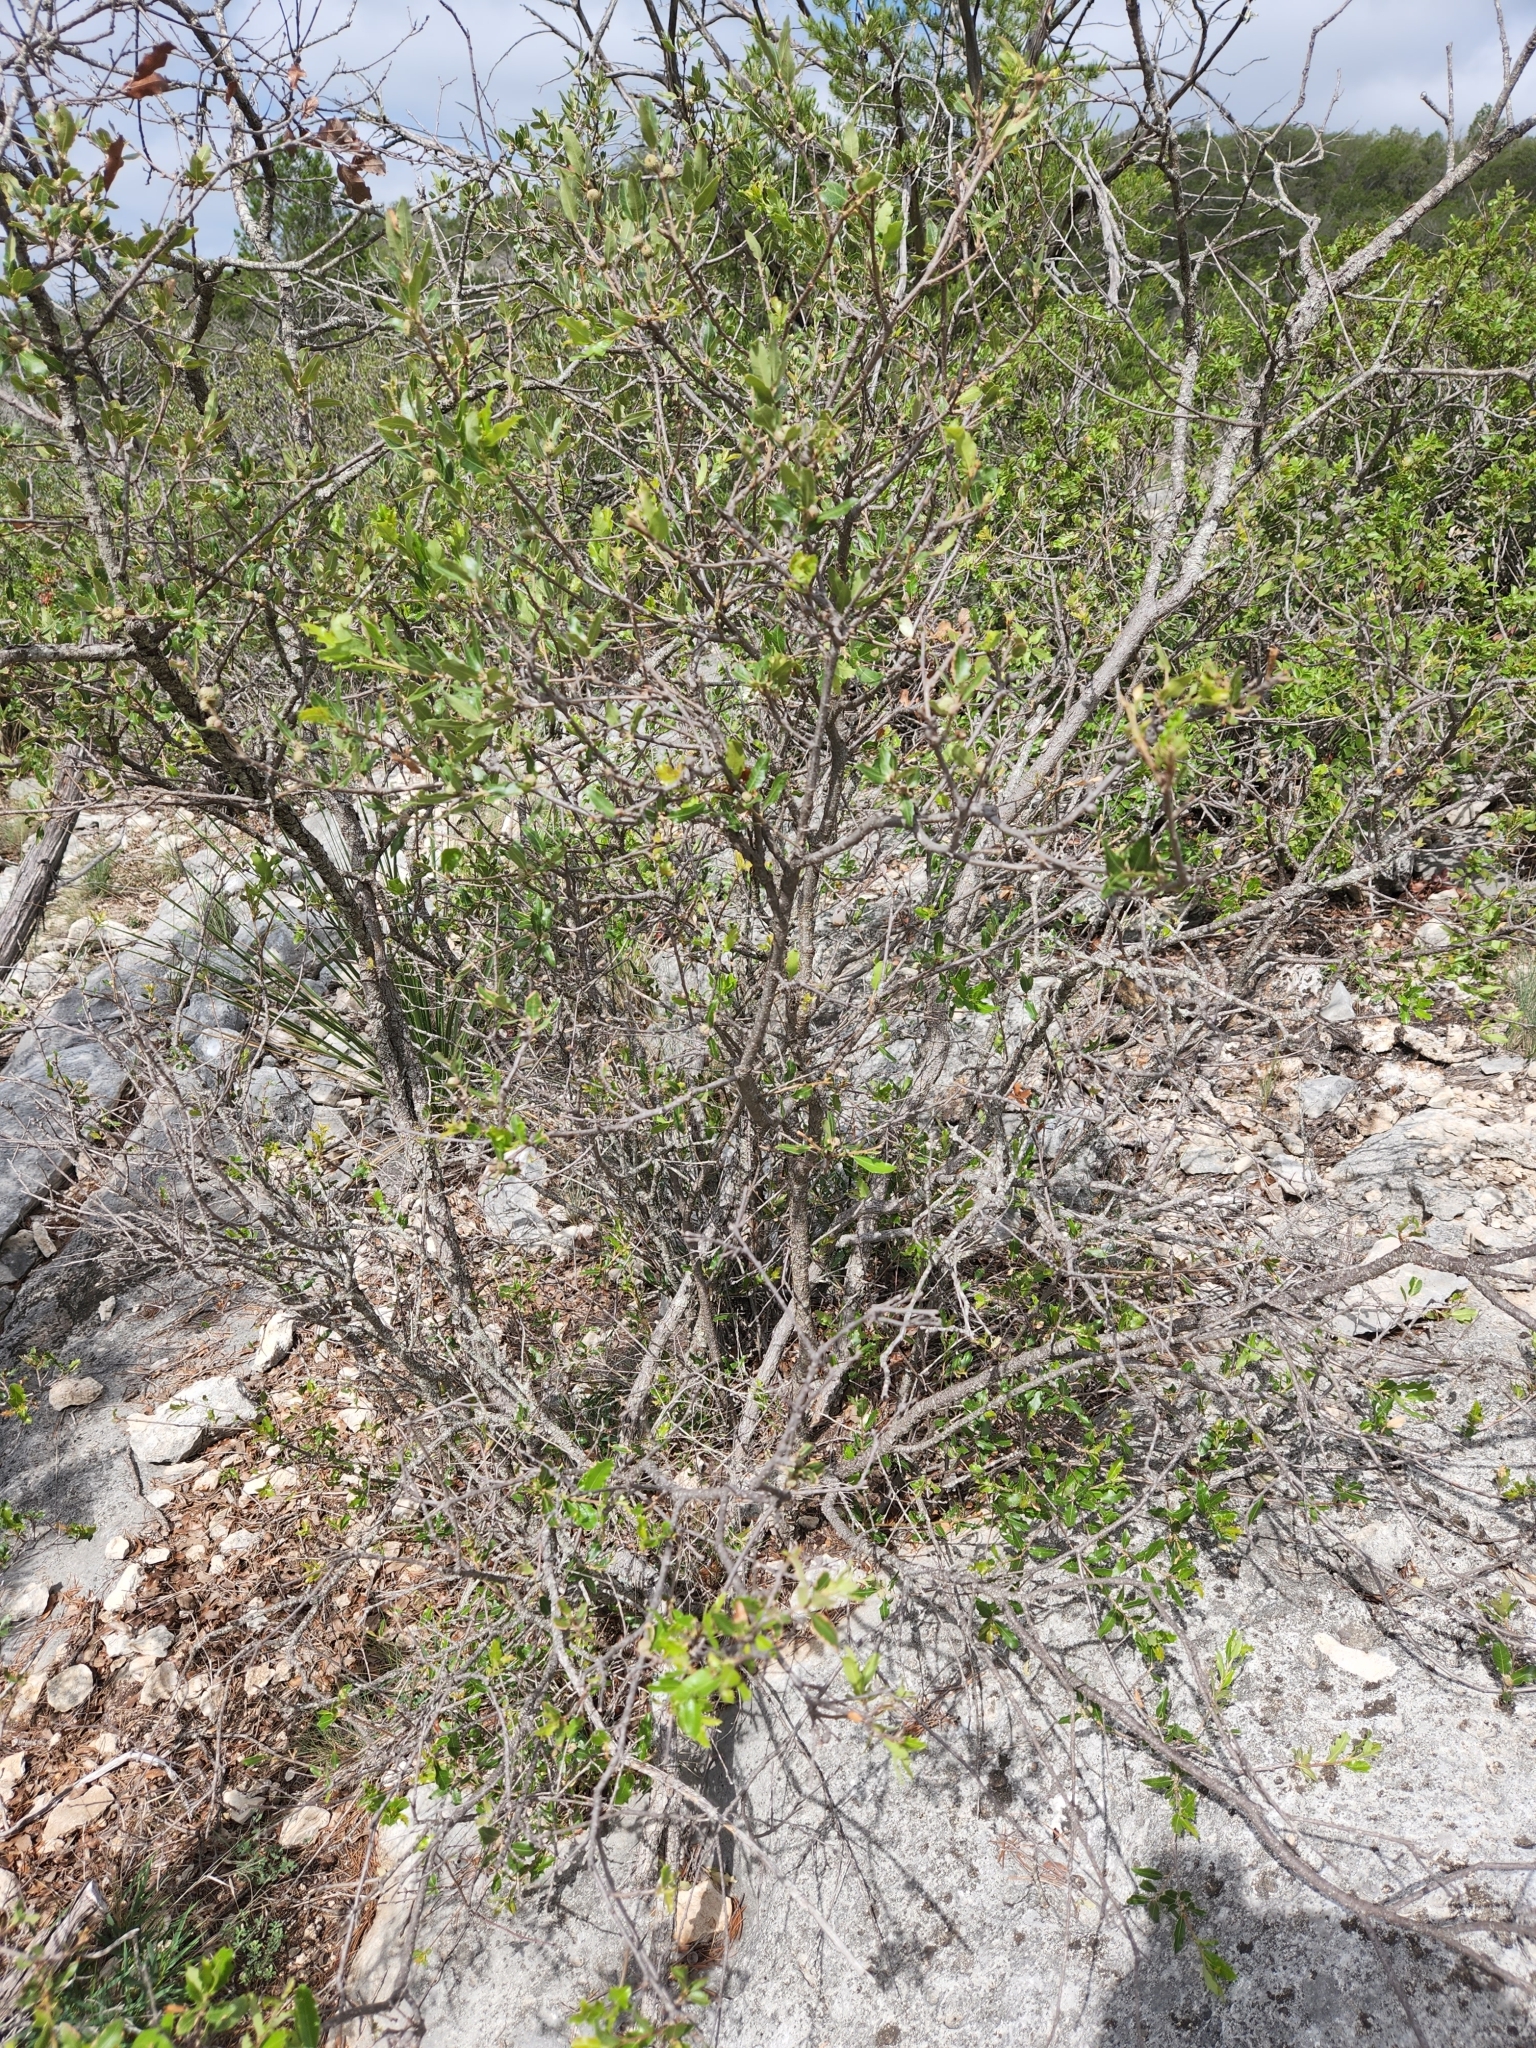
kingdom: Plantae
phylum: Tracheophyta
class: Magnoliopsida
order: Fagales
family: Fagaceae
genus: Quercus
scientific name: Quercus vaseyana
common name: Sandpaper oak
